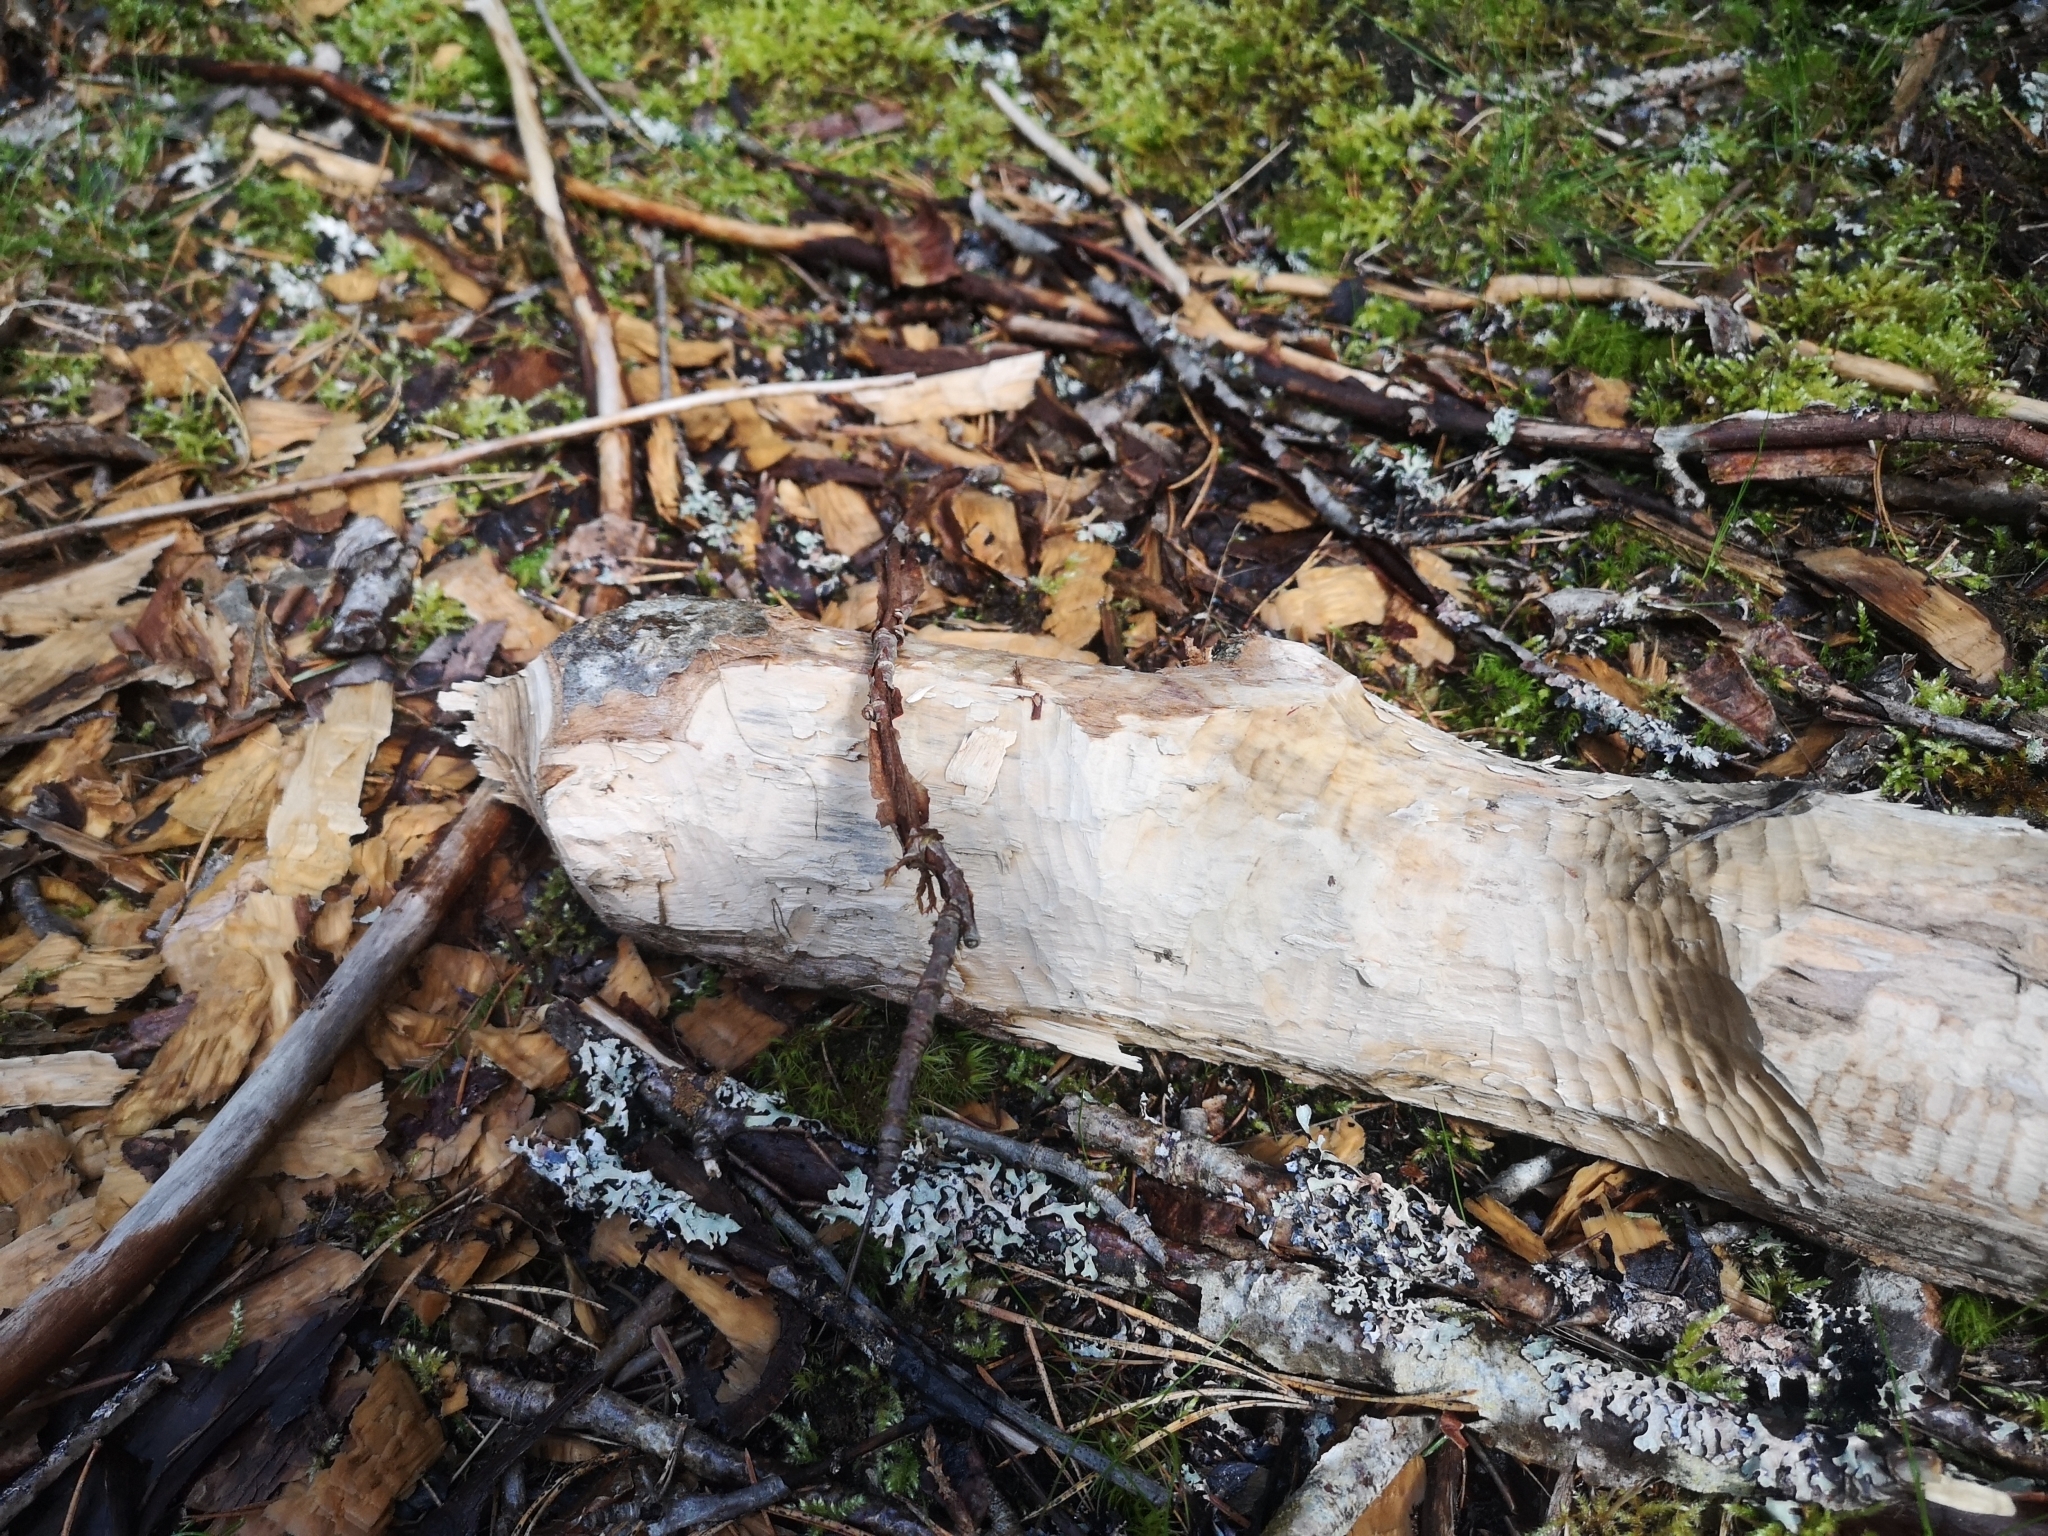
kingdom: Animalia
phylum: Chordata
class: Mammalia
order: Rodentia
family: Castoridae
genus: Castor
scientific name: Castor fiber
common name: Eurasian beaver
